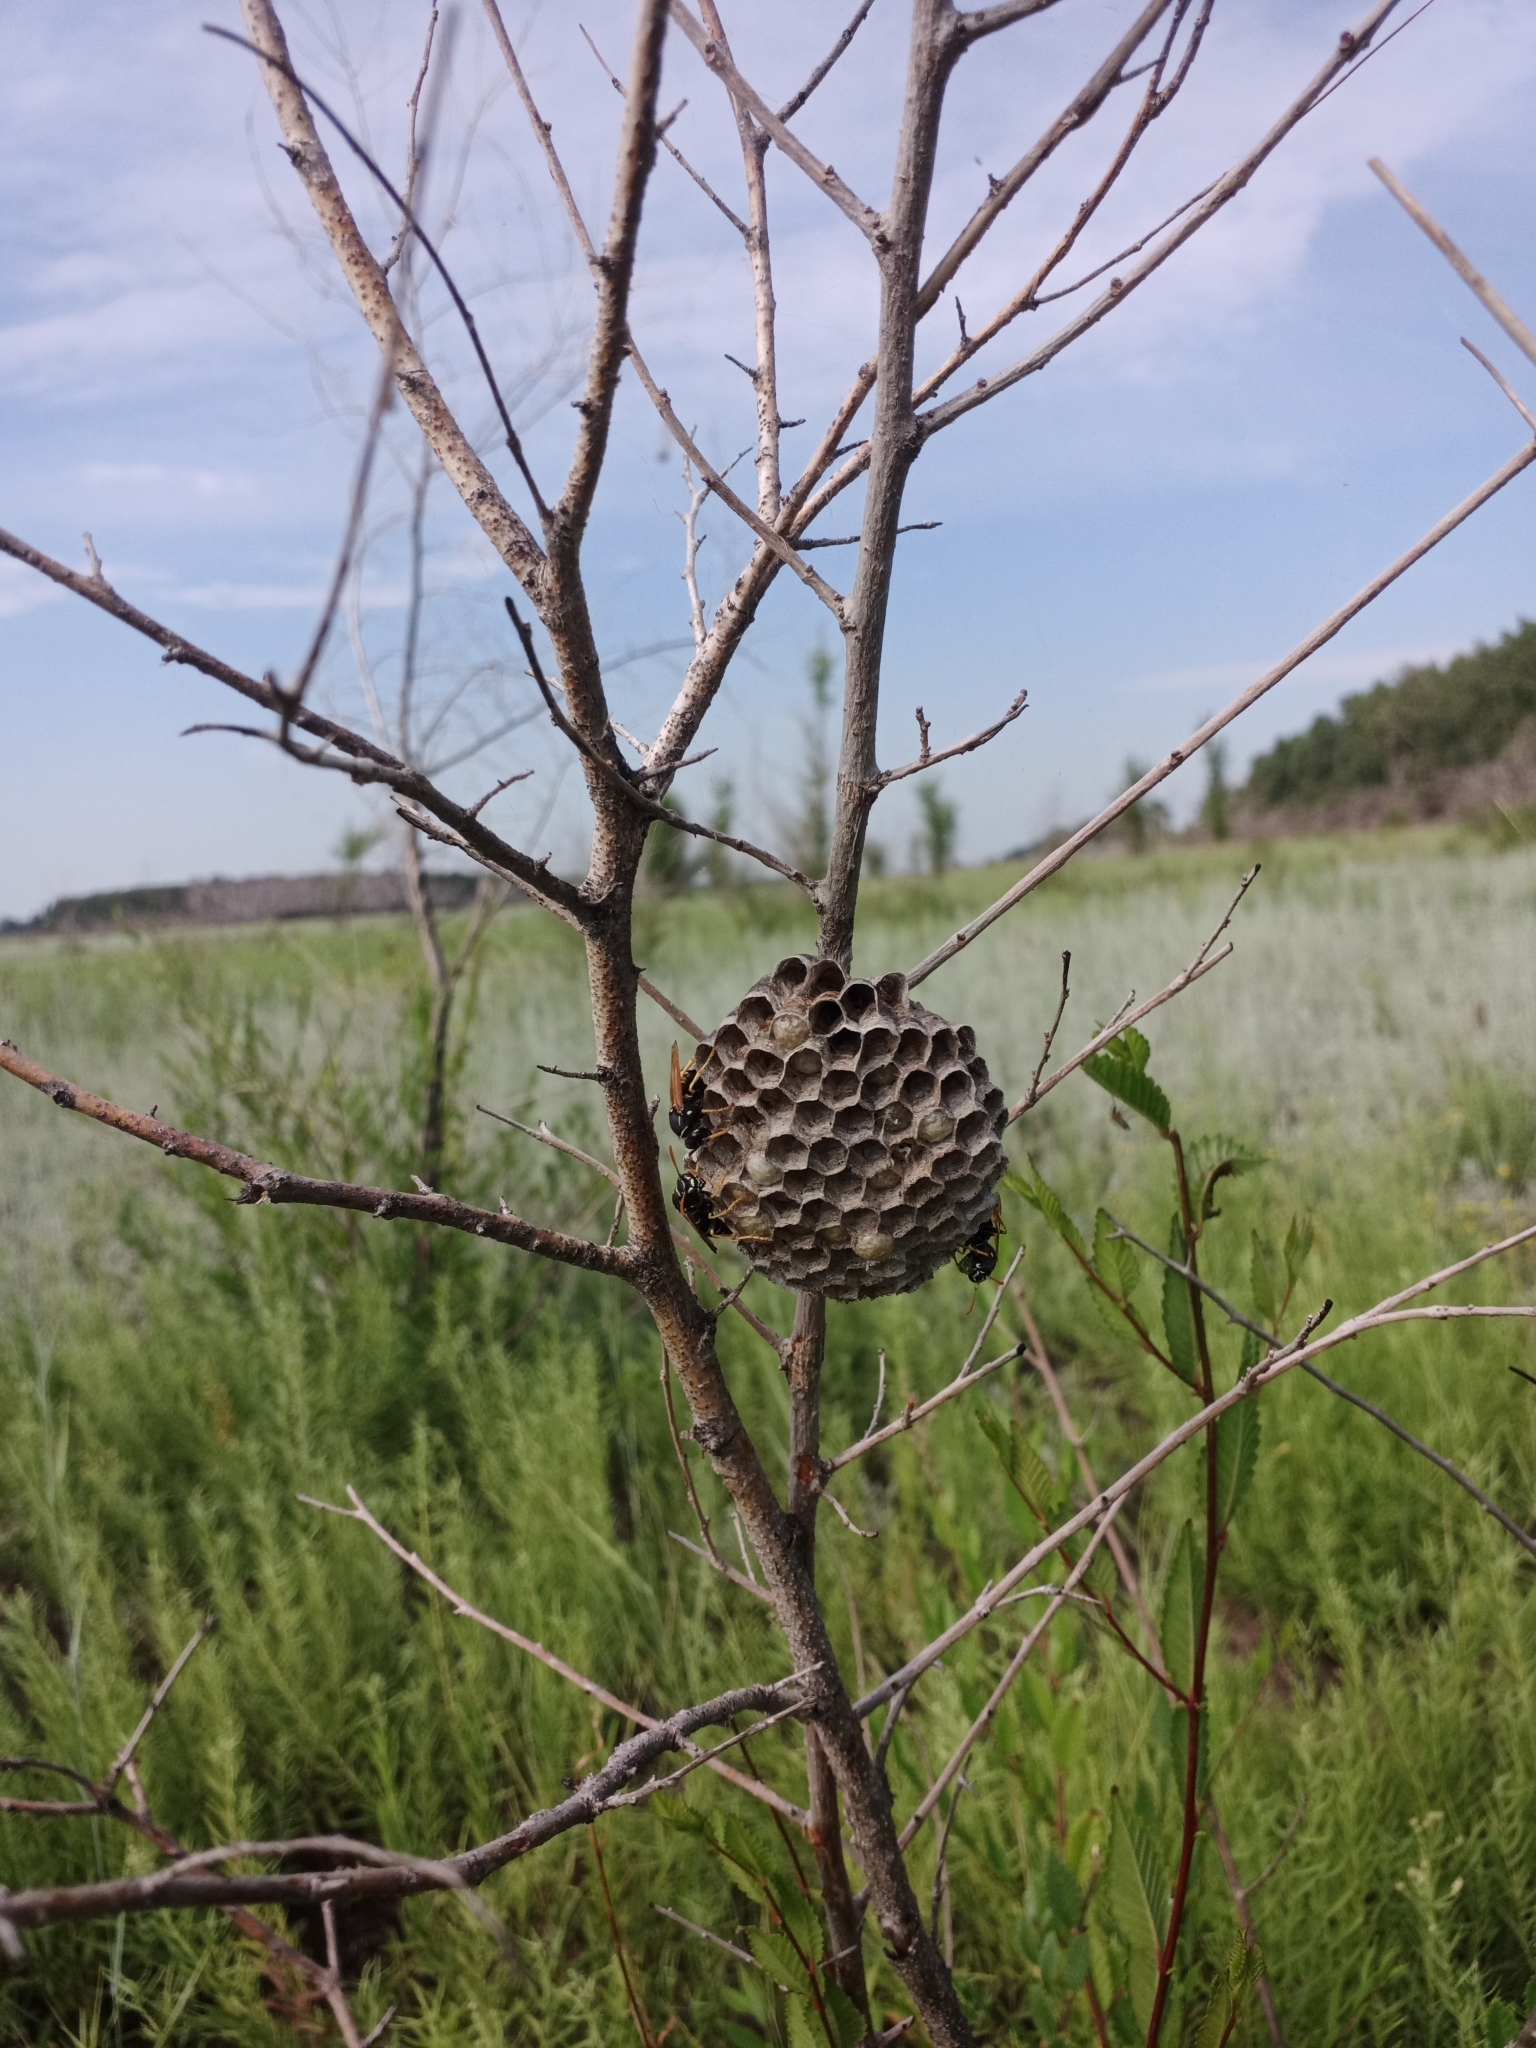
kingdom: Animalia
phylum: Arthropoda
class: Insecta
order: Hymenoptera
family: Eumenidae
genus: Polistes
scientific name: Polistes nimpha
